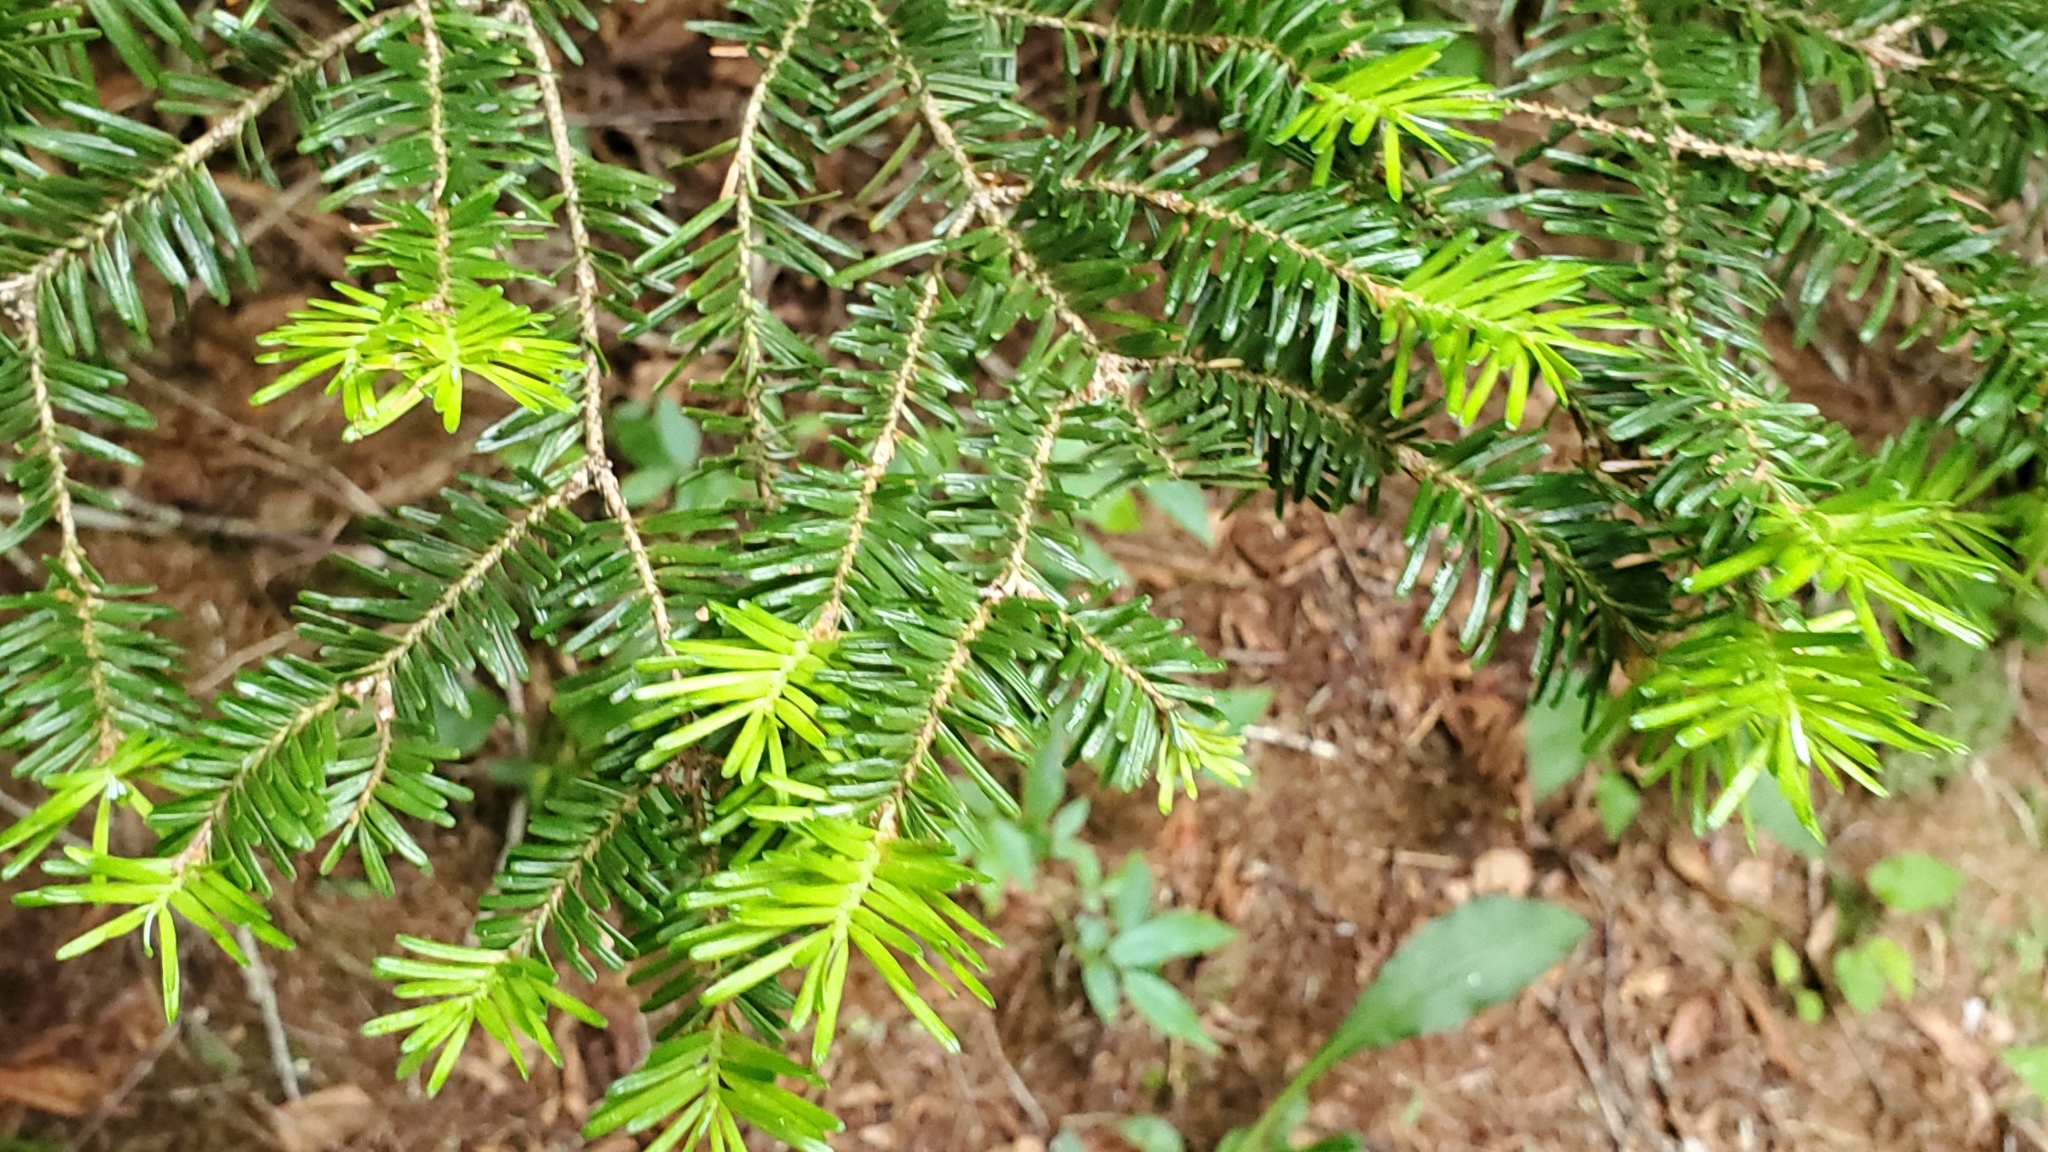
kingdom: Plantae
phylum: Tracheophyta
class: Pinopsida
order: Pinales
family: Pinaceae
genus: Tsuga
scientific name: Tsuga canadensis
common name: Eastern hemlock
